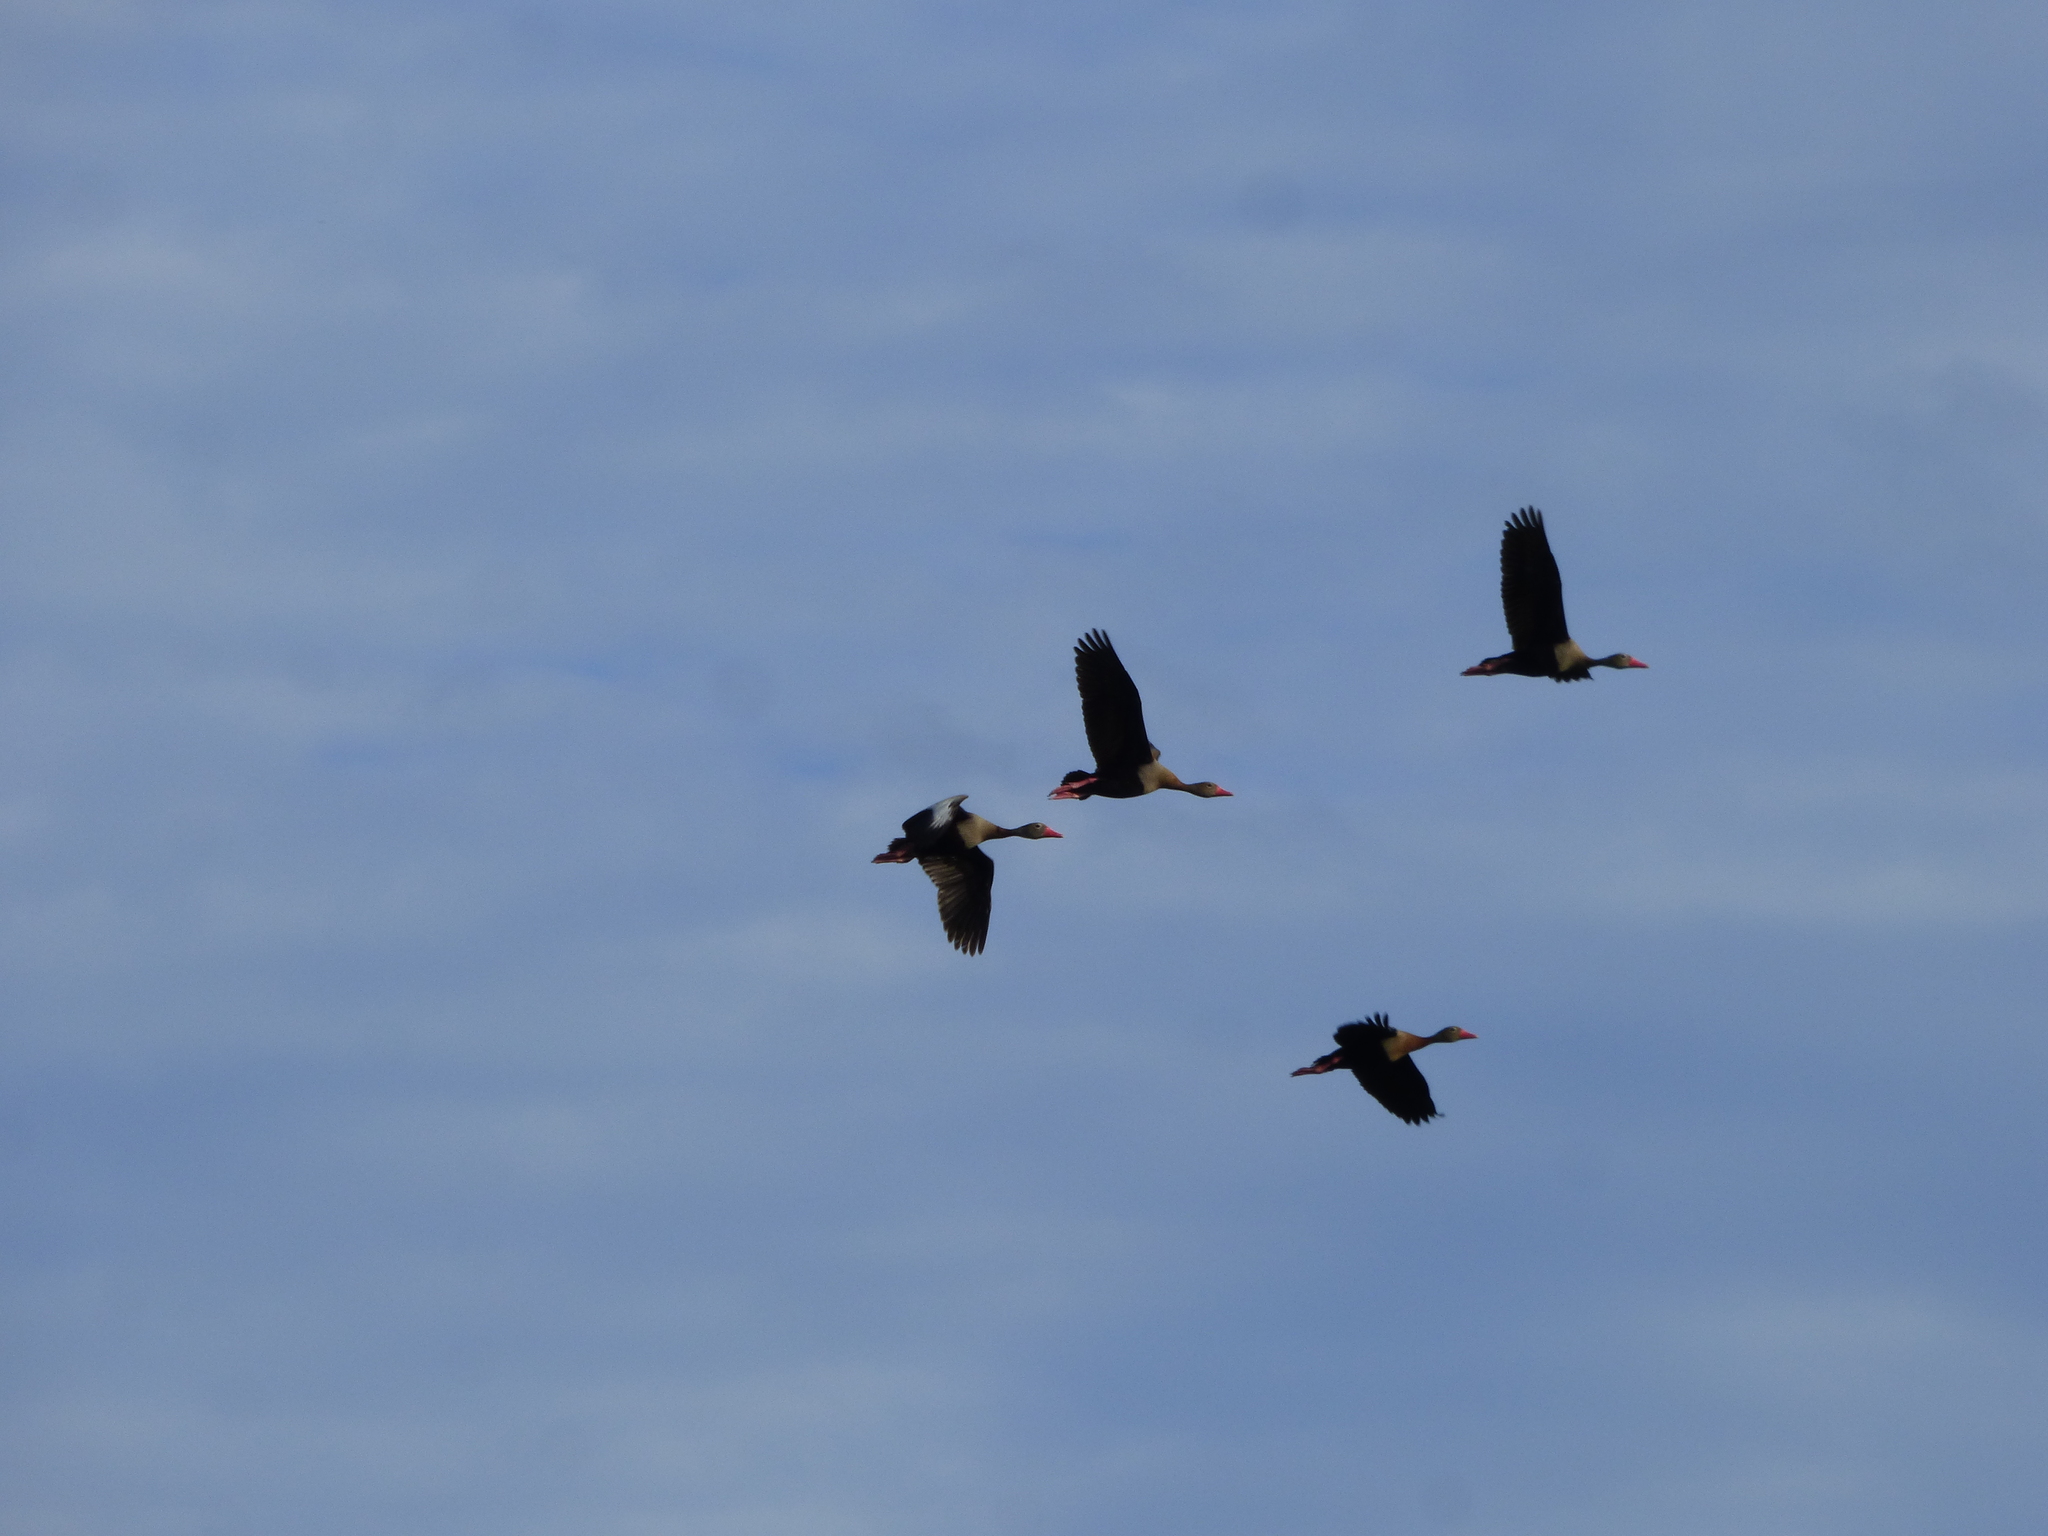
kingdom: Animalia
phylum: Chordata
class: Aves
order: Anseriformes
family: Anatidae
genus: Dendrocygna
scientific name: Dendrocygna autumnalis
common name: Black-bellied whistling duck
